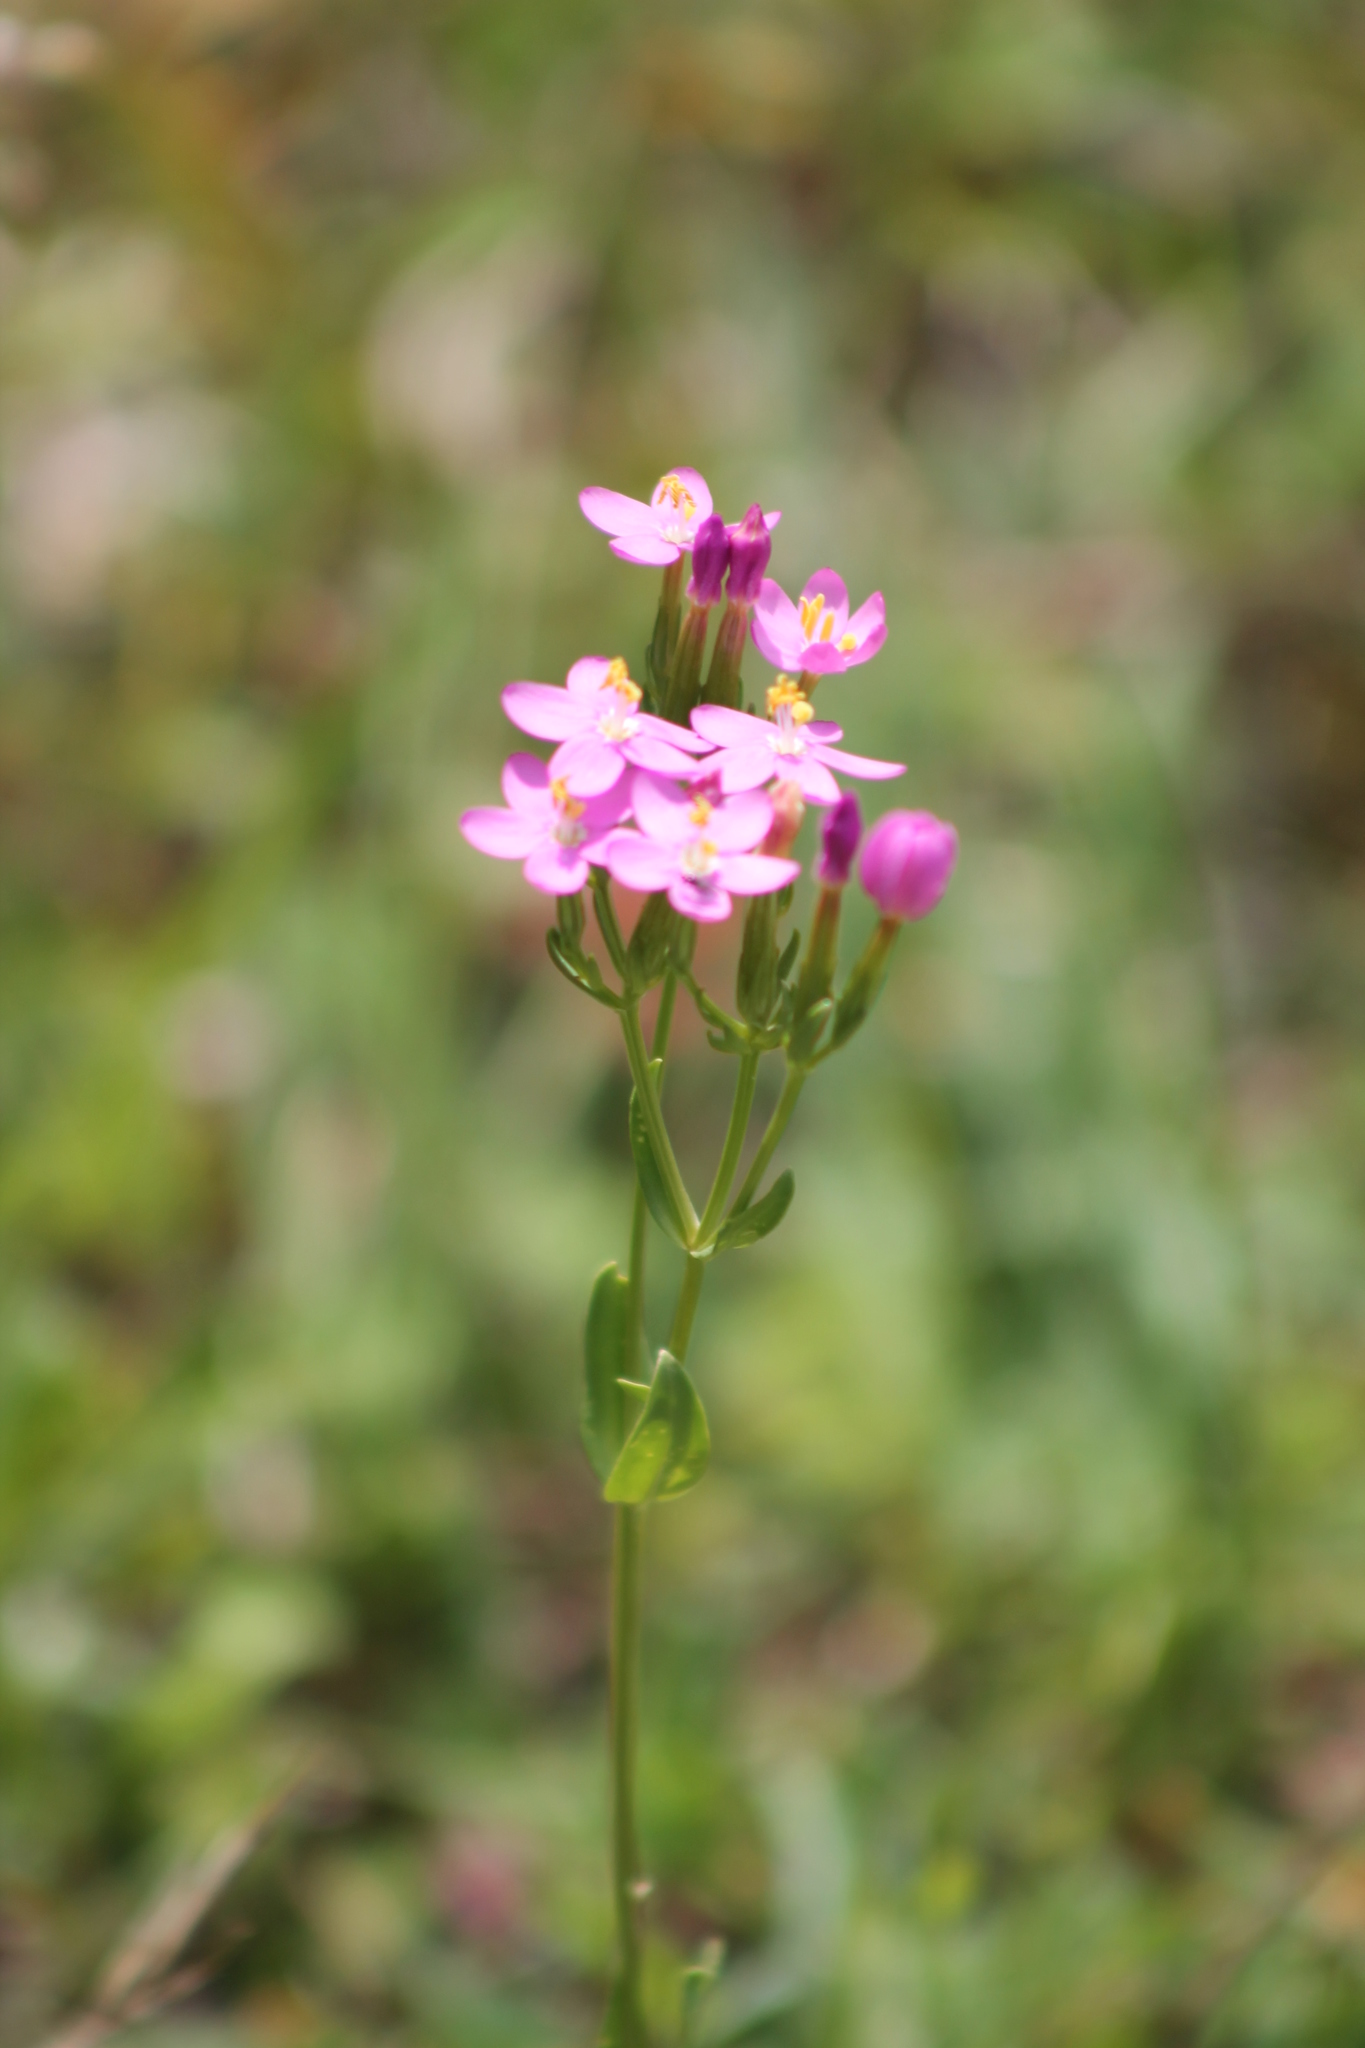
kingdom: Plantae
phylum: Tracheophyta
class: Magnoliopsida
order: Gentianales
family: Gentianaceae
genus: Centaurium
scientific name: Centaurium erythraea
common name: Common centaury
